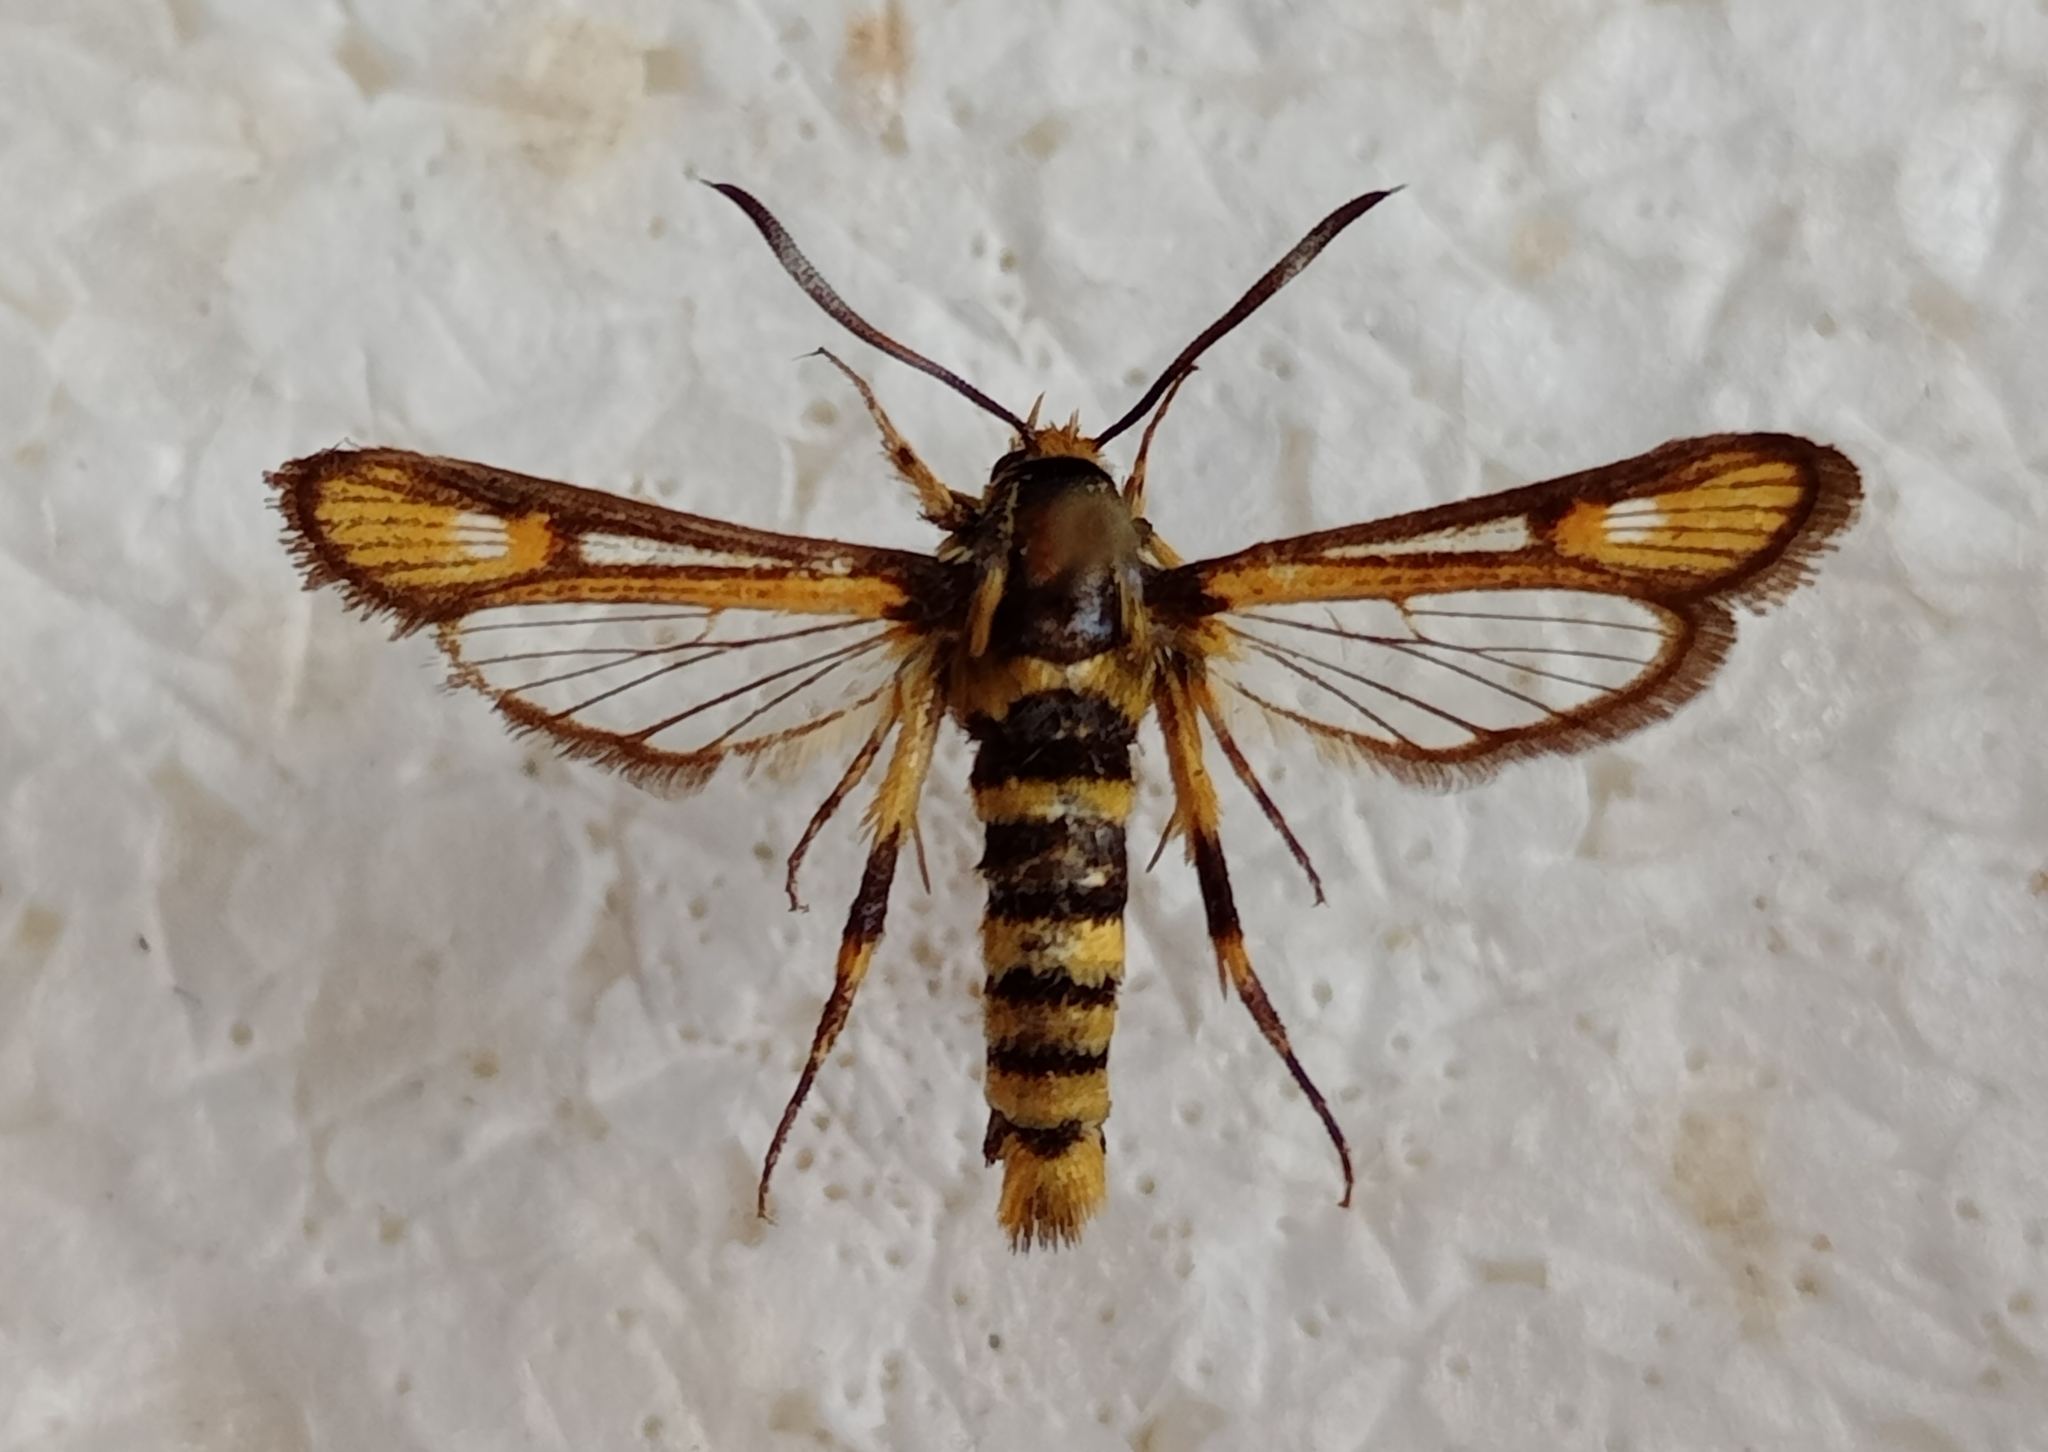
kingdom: Animalia
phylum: Arthropoda
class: Insecta
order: Lepidoptera
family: Sesiidae
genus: Bembecia
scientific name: Bembecia uroceriformis
